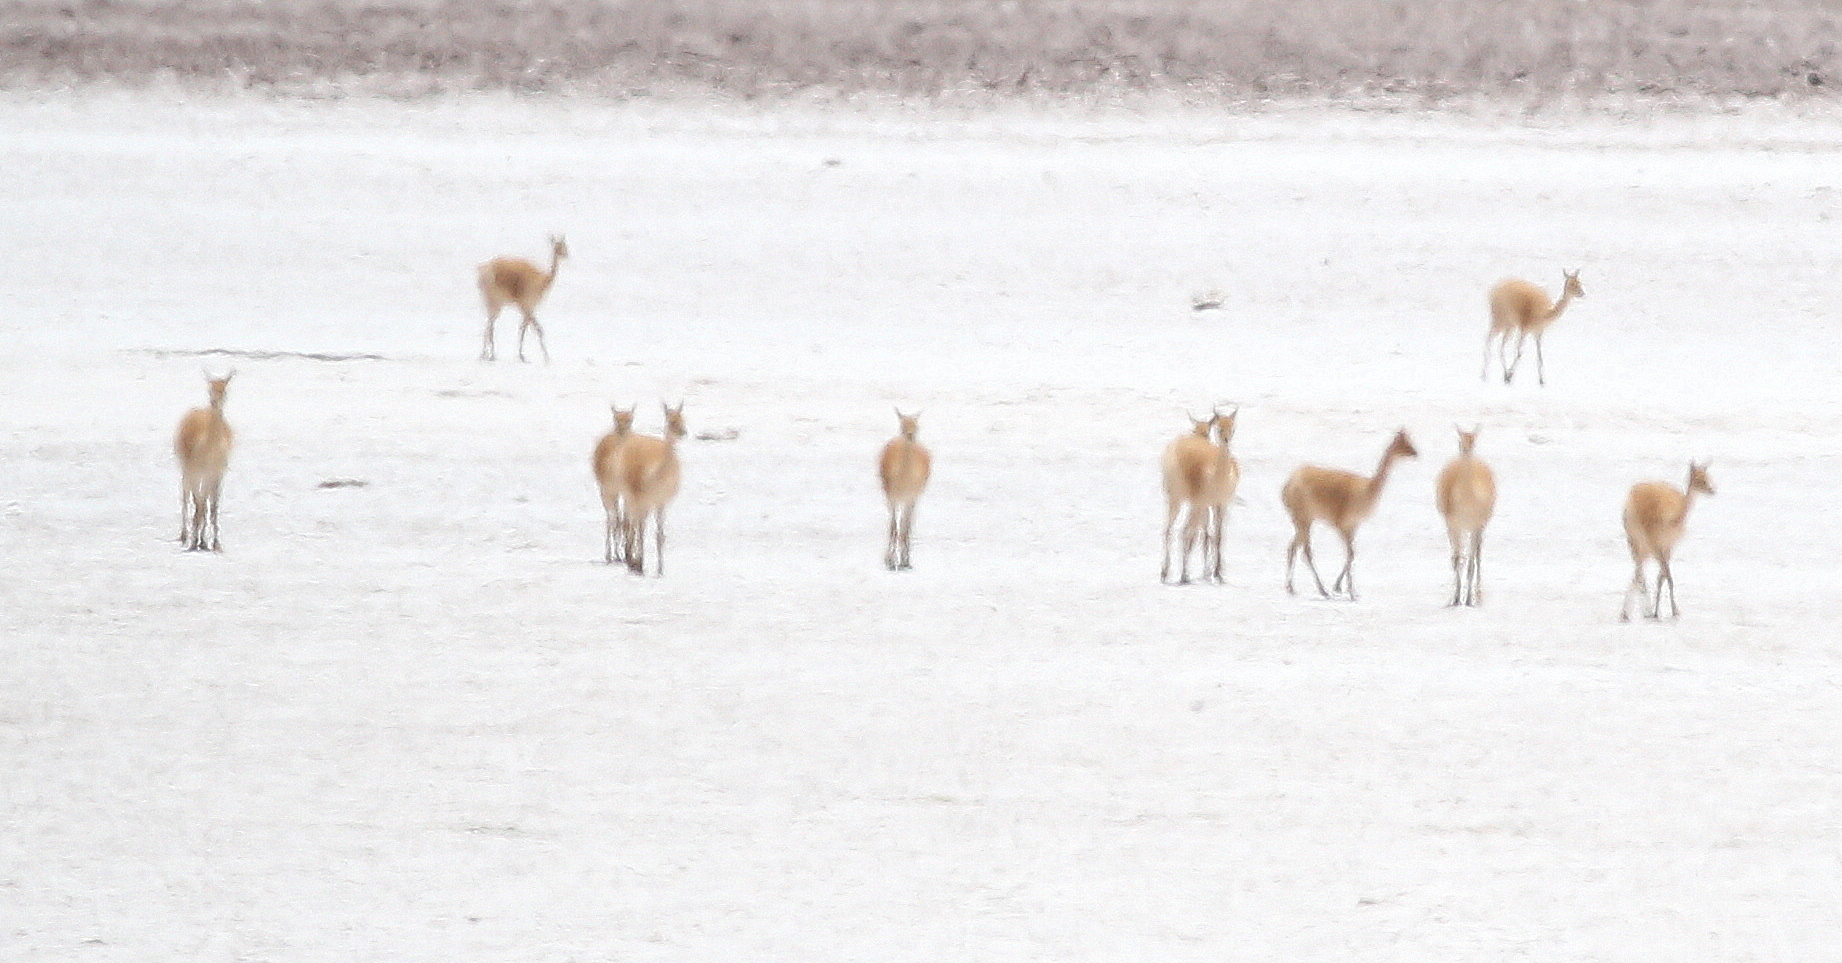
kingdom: Animalia
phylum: Chordata
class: Mammalia
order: Artiodactyla
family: Camelidae
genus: Vicugna
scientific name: Vicugna vicugna
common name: Vicugna
